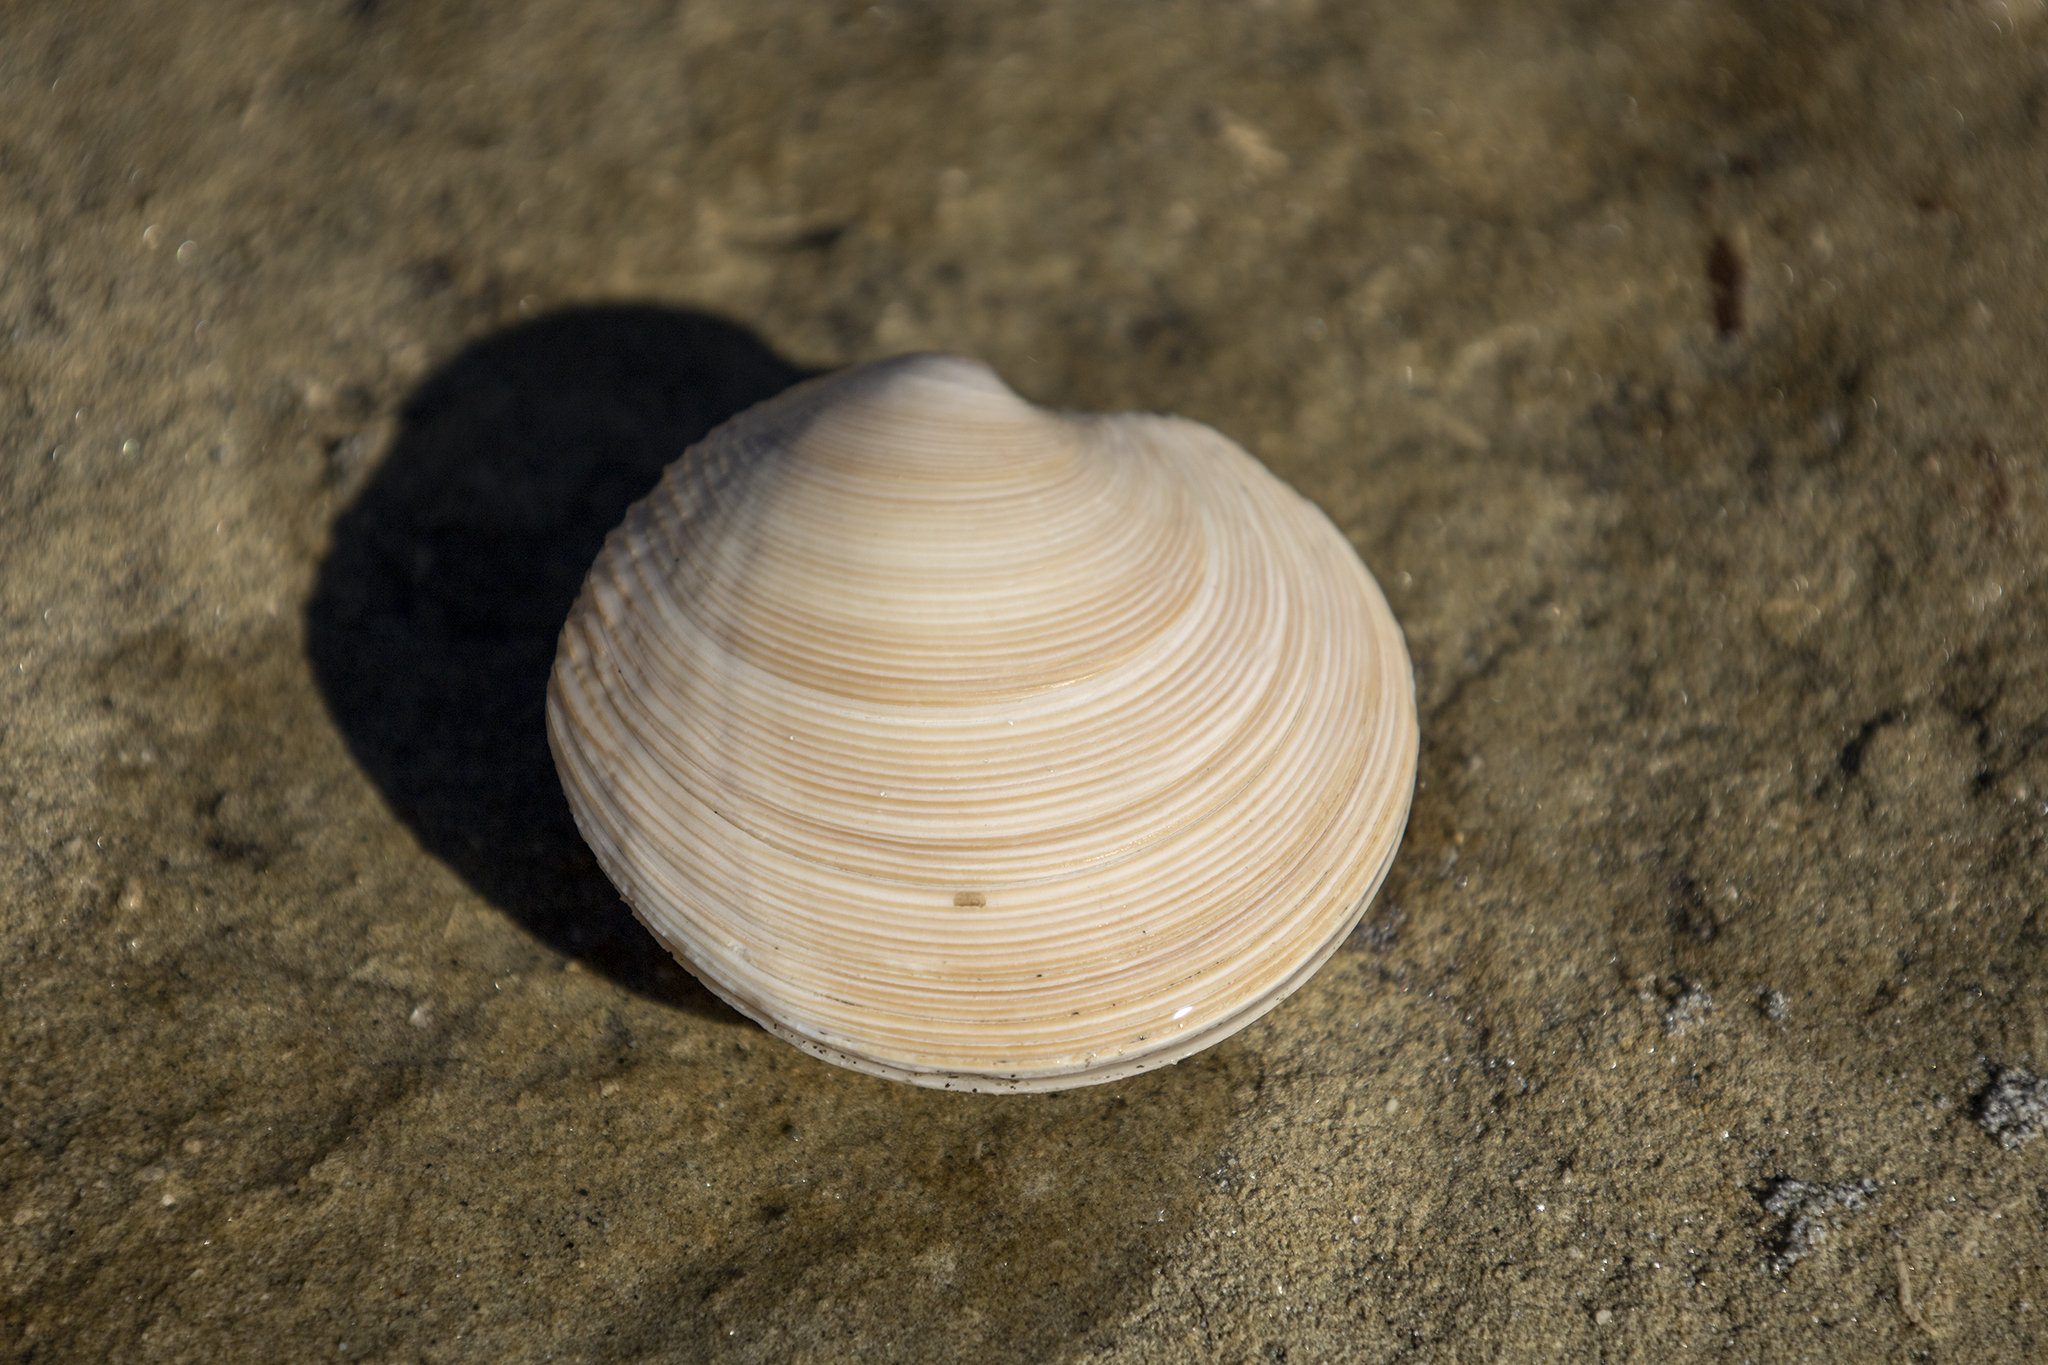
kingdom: Animalia
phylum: Mollusca
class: Bivalvia
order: Venerida
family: Veneridae
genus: Dosinia
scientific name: Dosinia anus
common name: Old-woman dosinia
